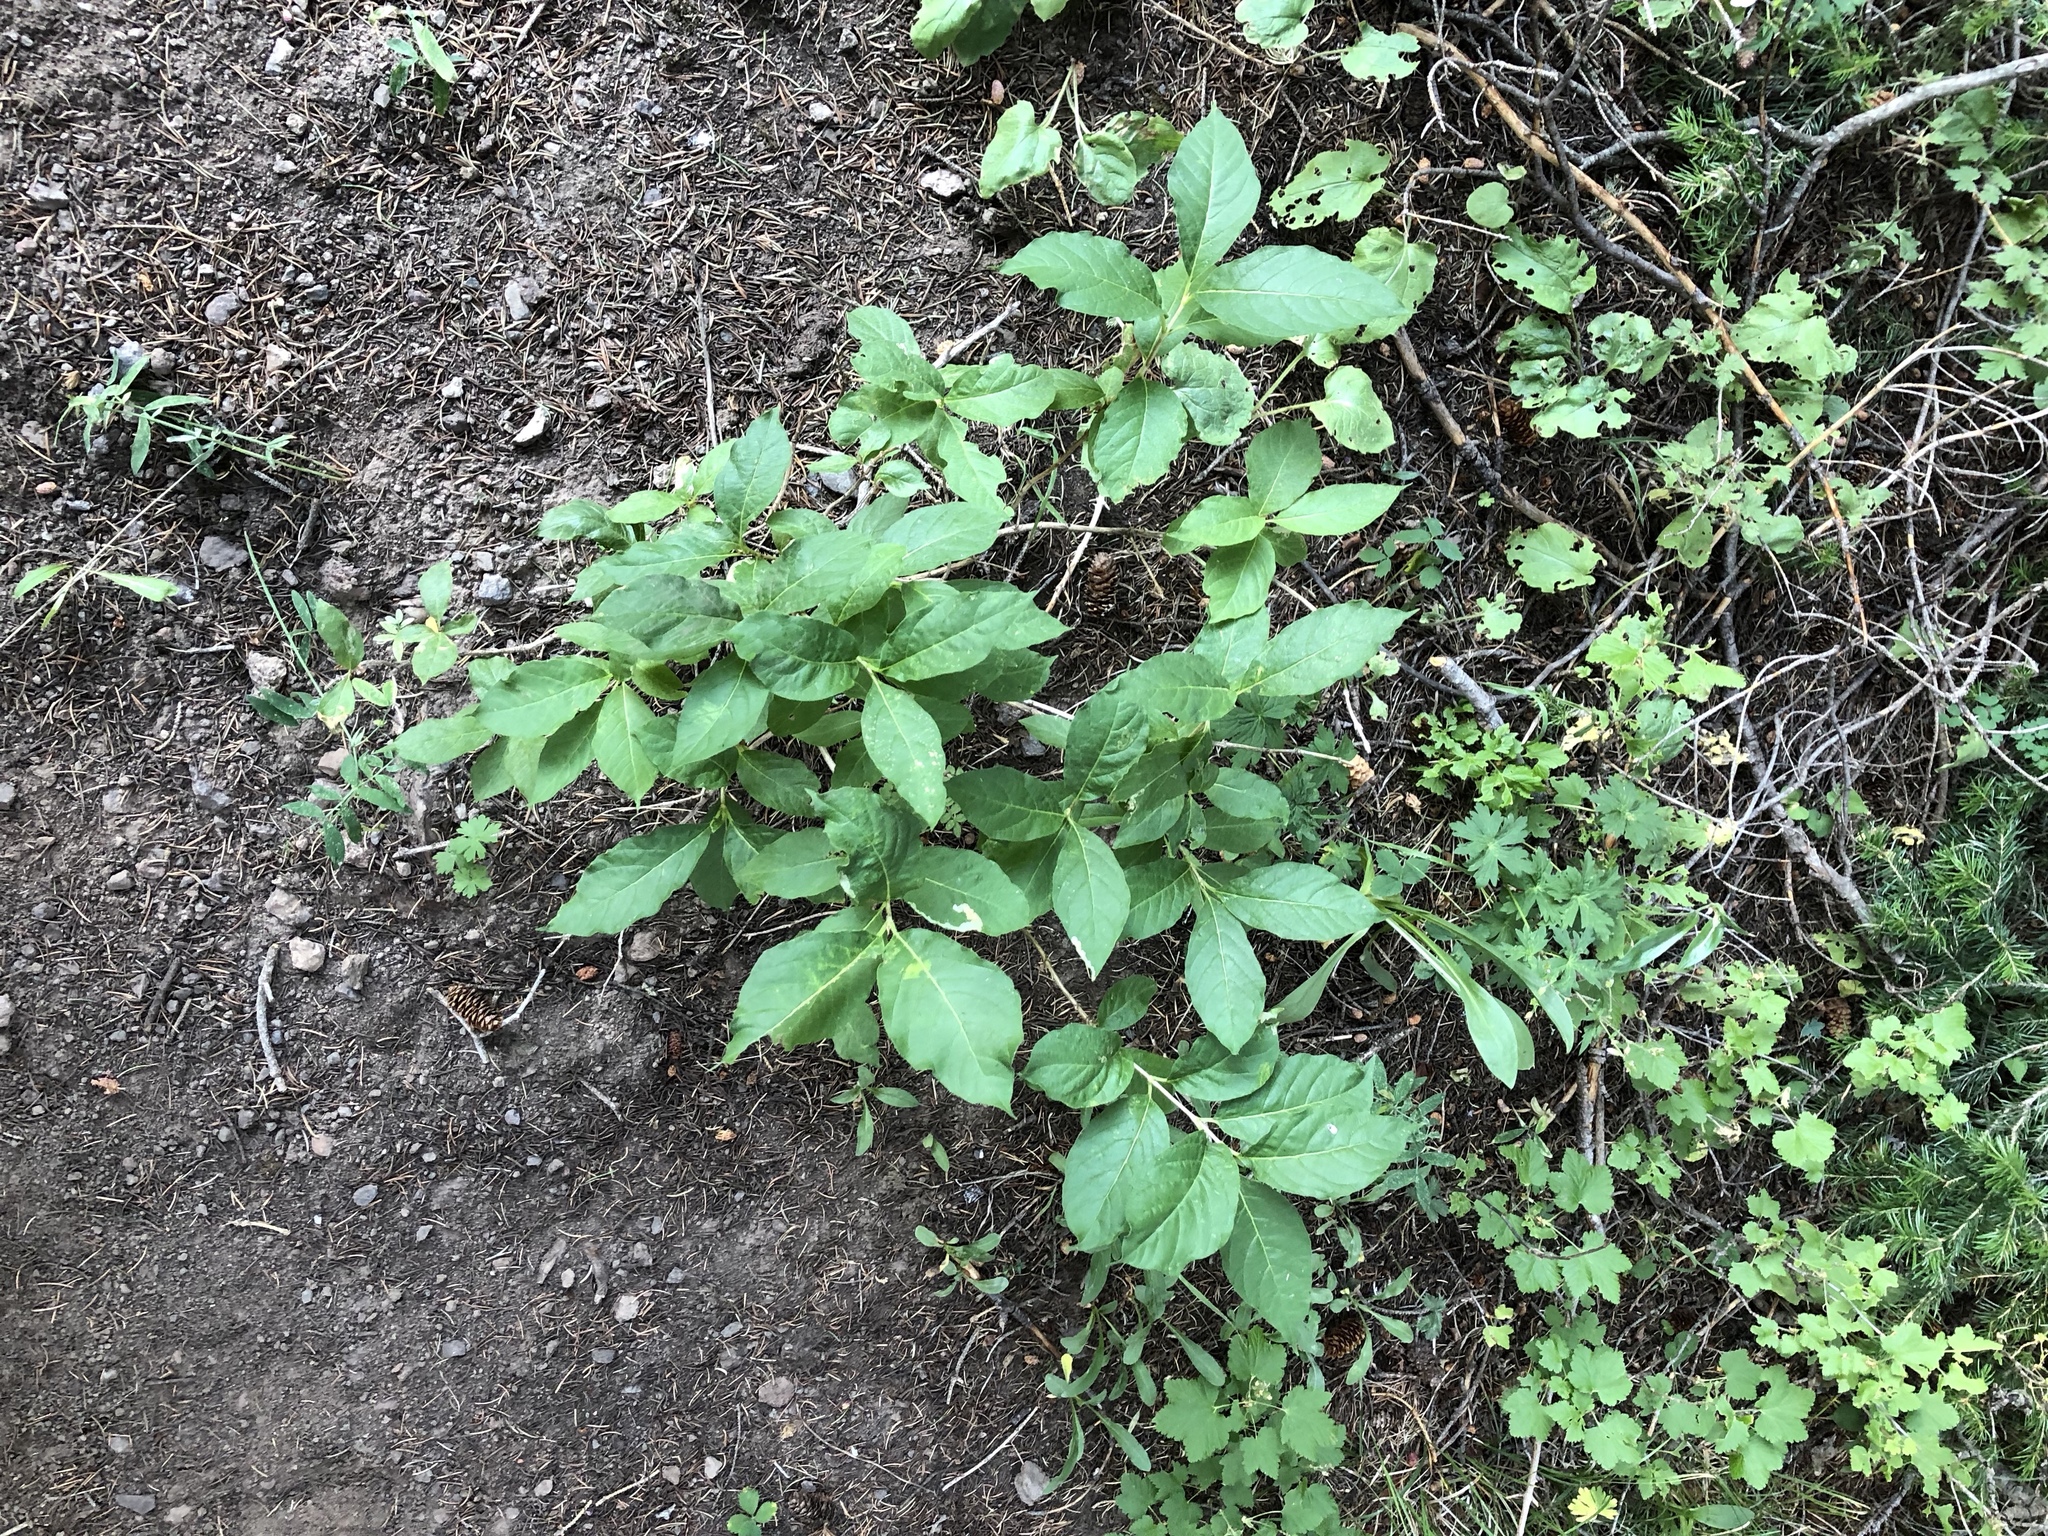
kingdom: Plantae
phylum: Tracheophyta
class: Magnoliopsida
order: Dipsacales
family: Caprifoliaceae
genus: Lonicera
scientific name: Lonicera involucrata
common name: Californian honeysuckle
